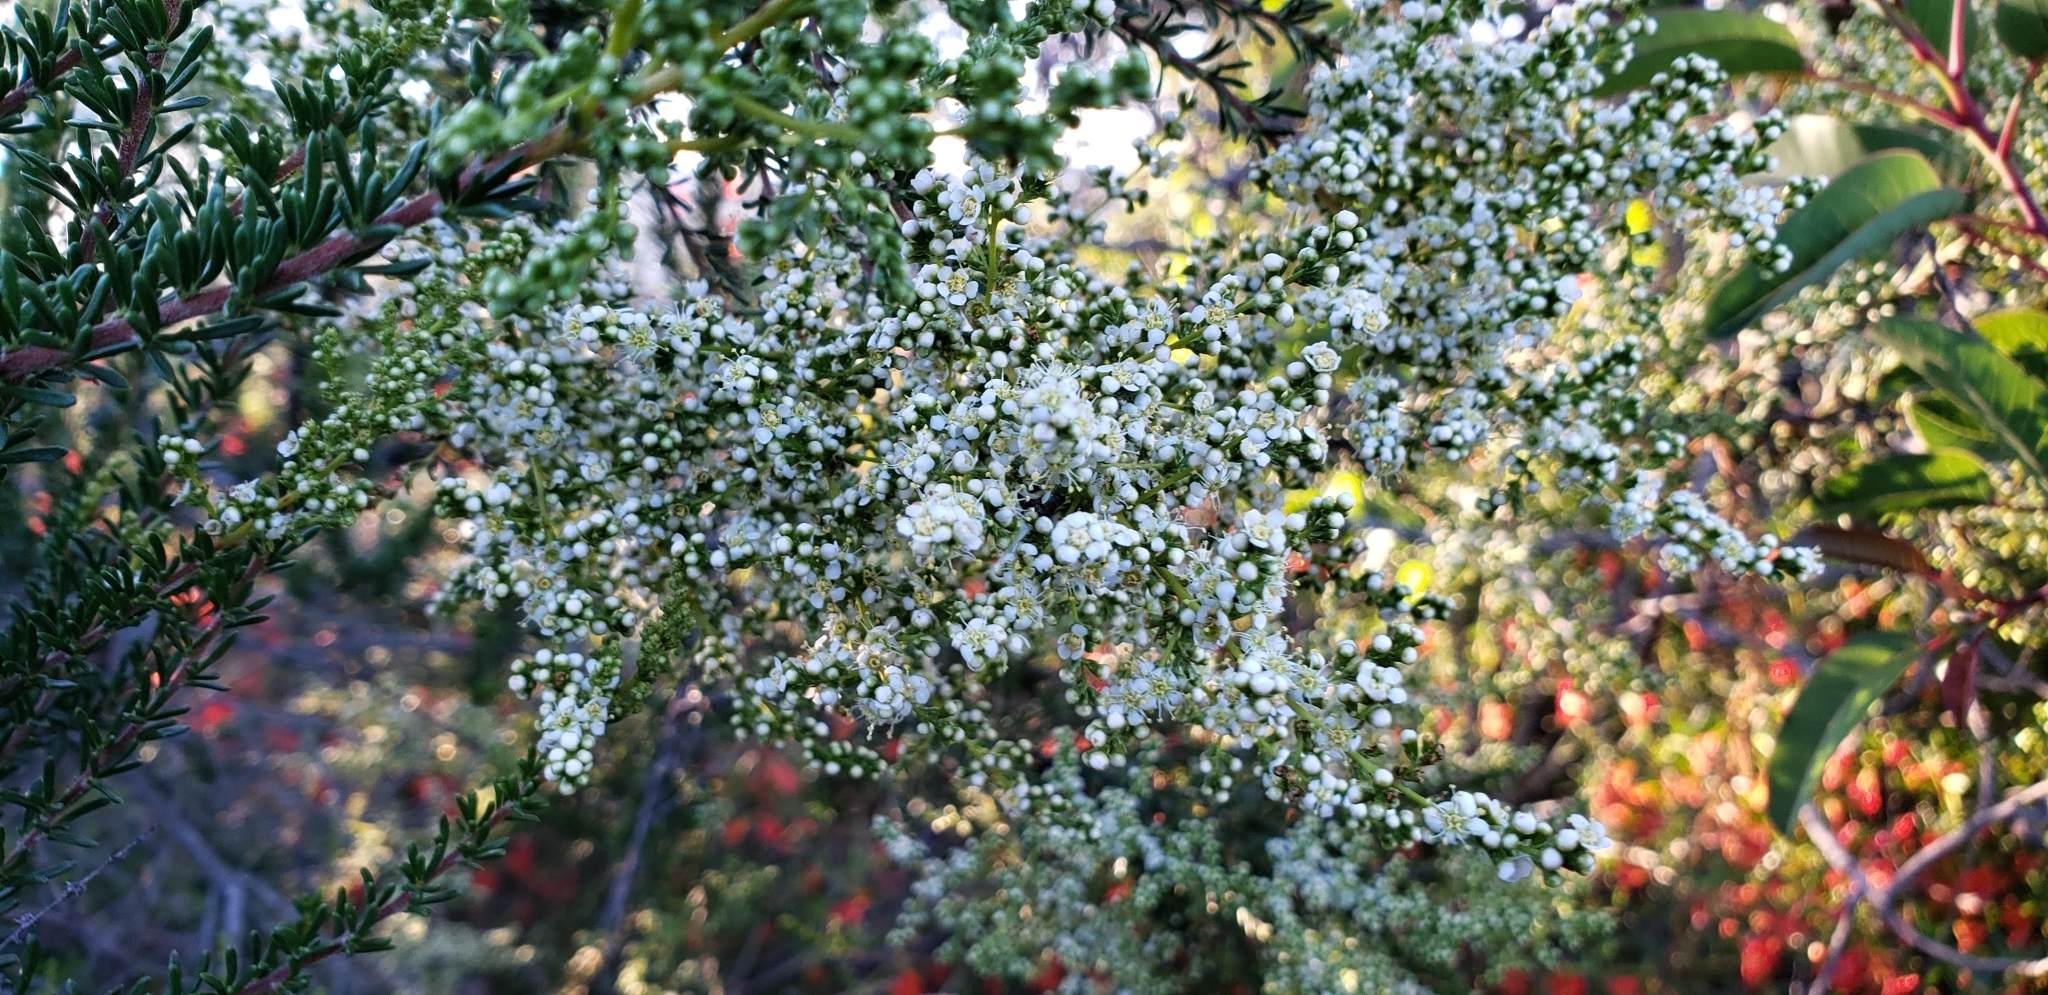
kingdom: Plantae
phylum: Tracheophyta
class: Magnoliopsida
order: Rosales
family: Rosaceae
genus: Adenostoma
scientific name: Adenostoma fasciculatum
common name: Chamise
